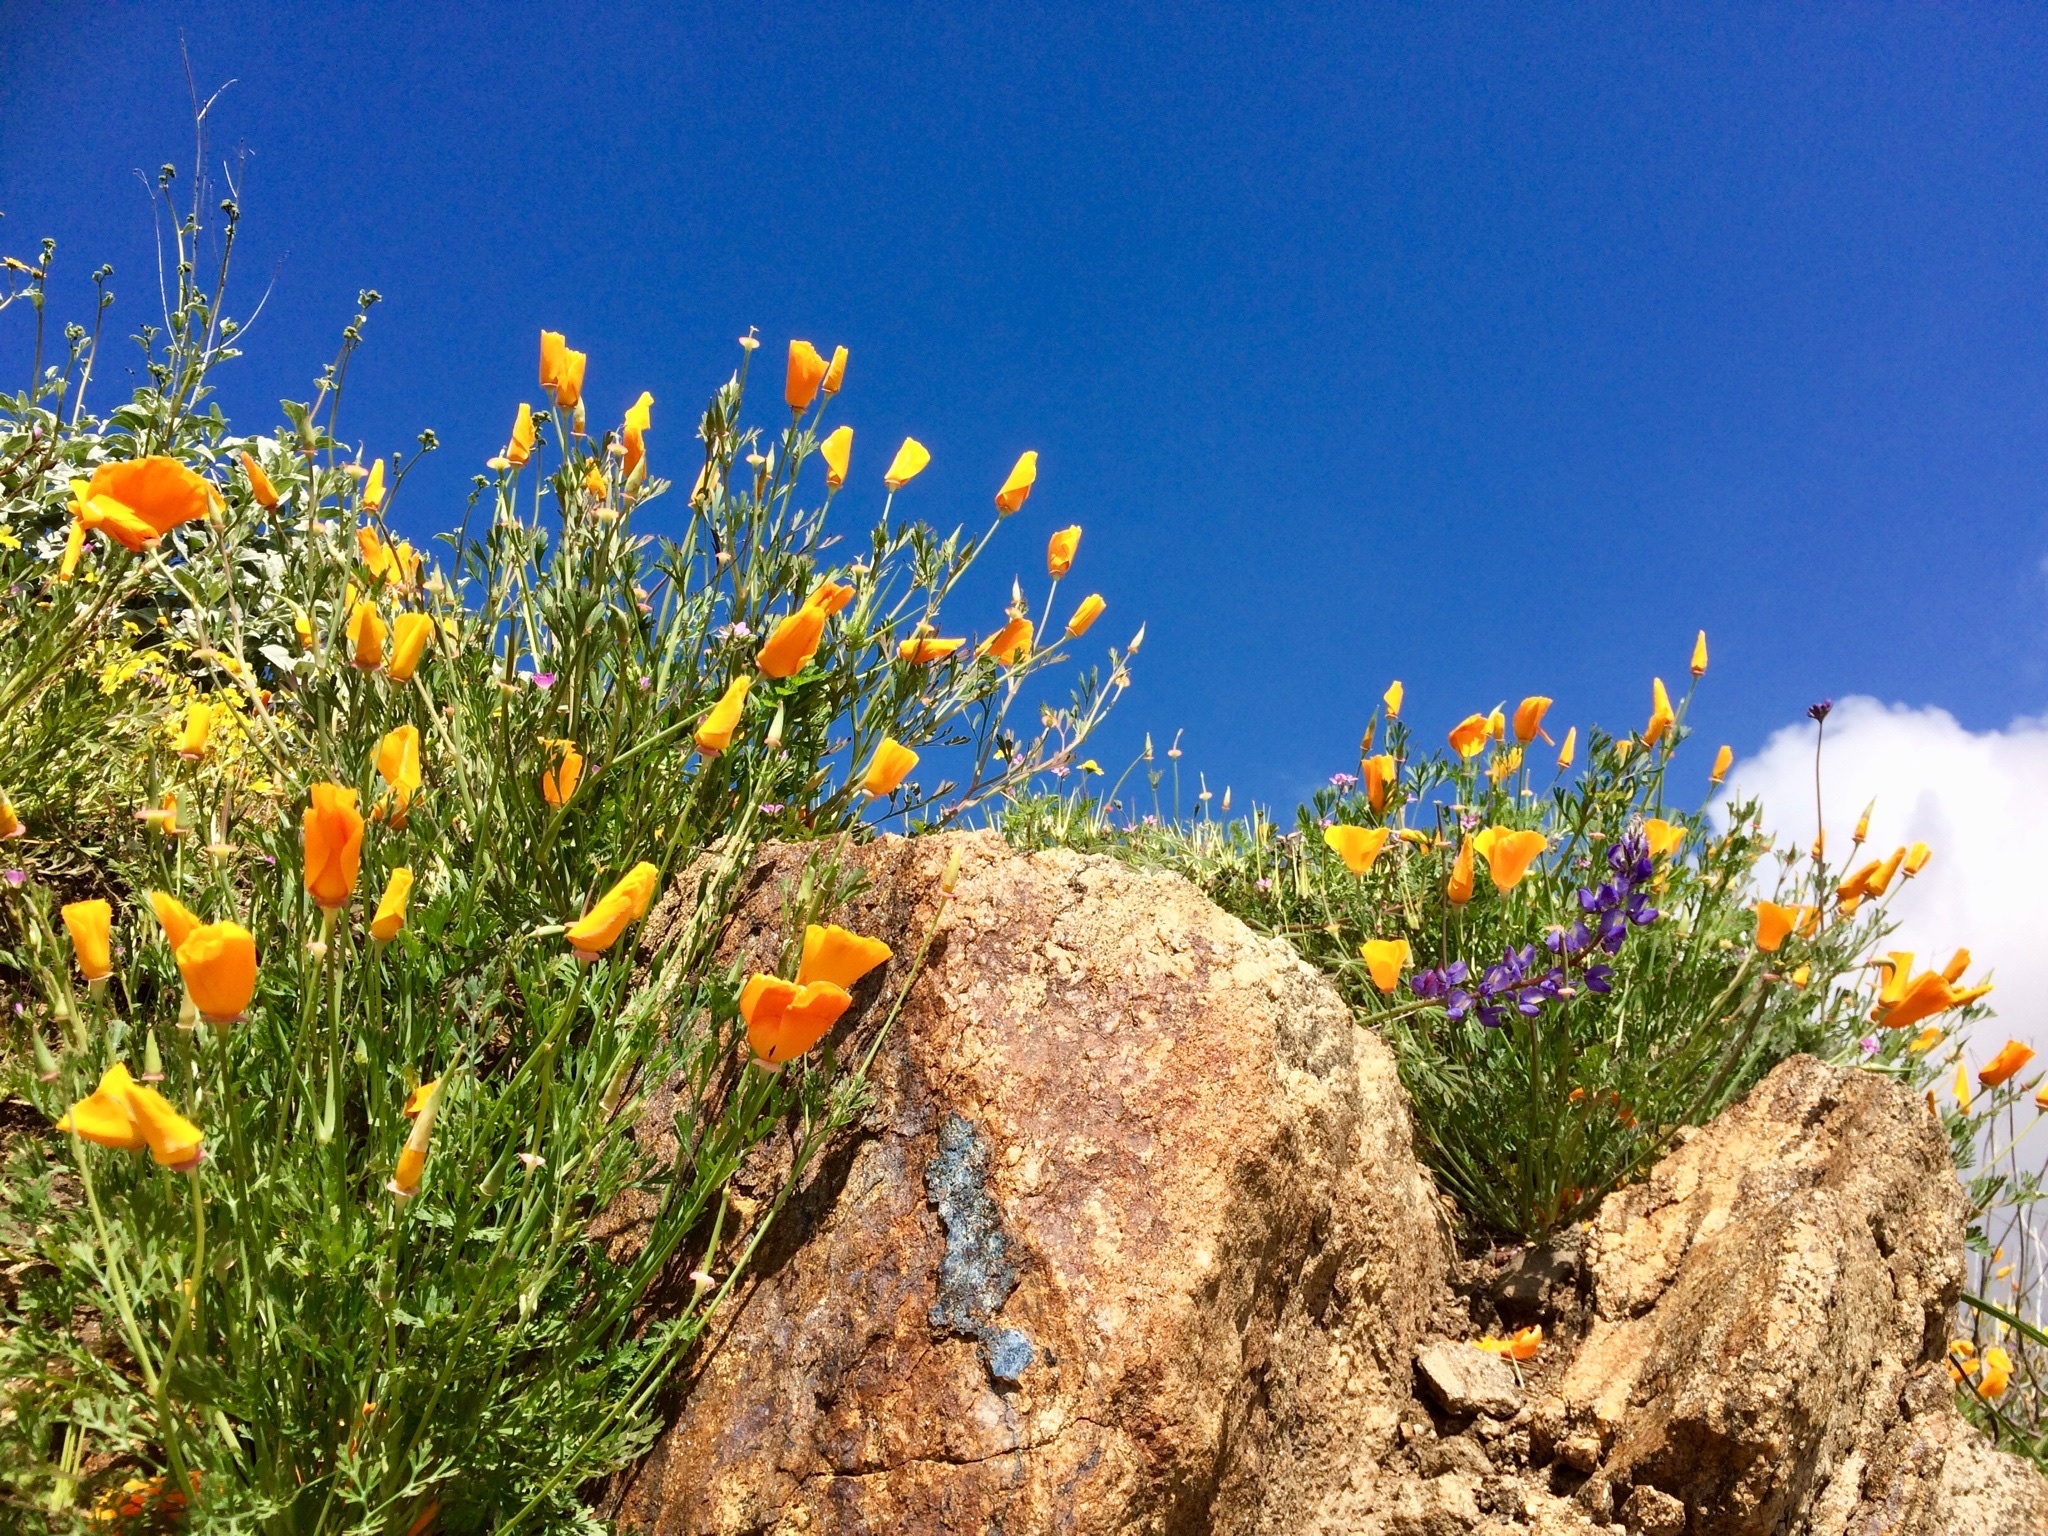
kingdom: Plantae
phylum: Tracheophyta
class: Magnoliopsida
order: Ranunculales
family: Papaveraceae
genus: Eschscholzia
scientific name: Eschscholzia californica
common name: California poppy
